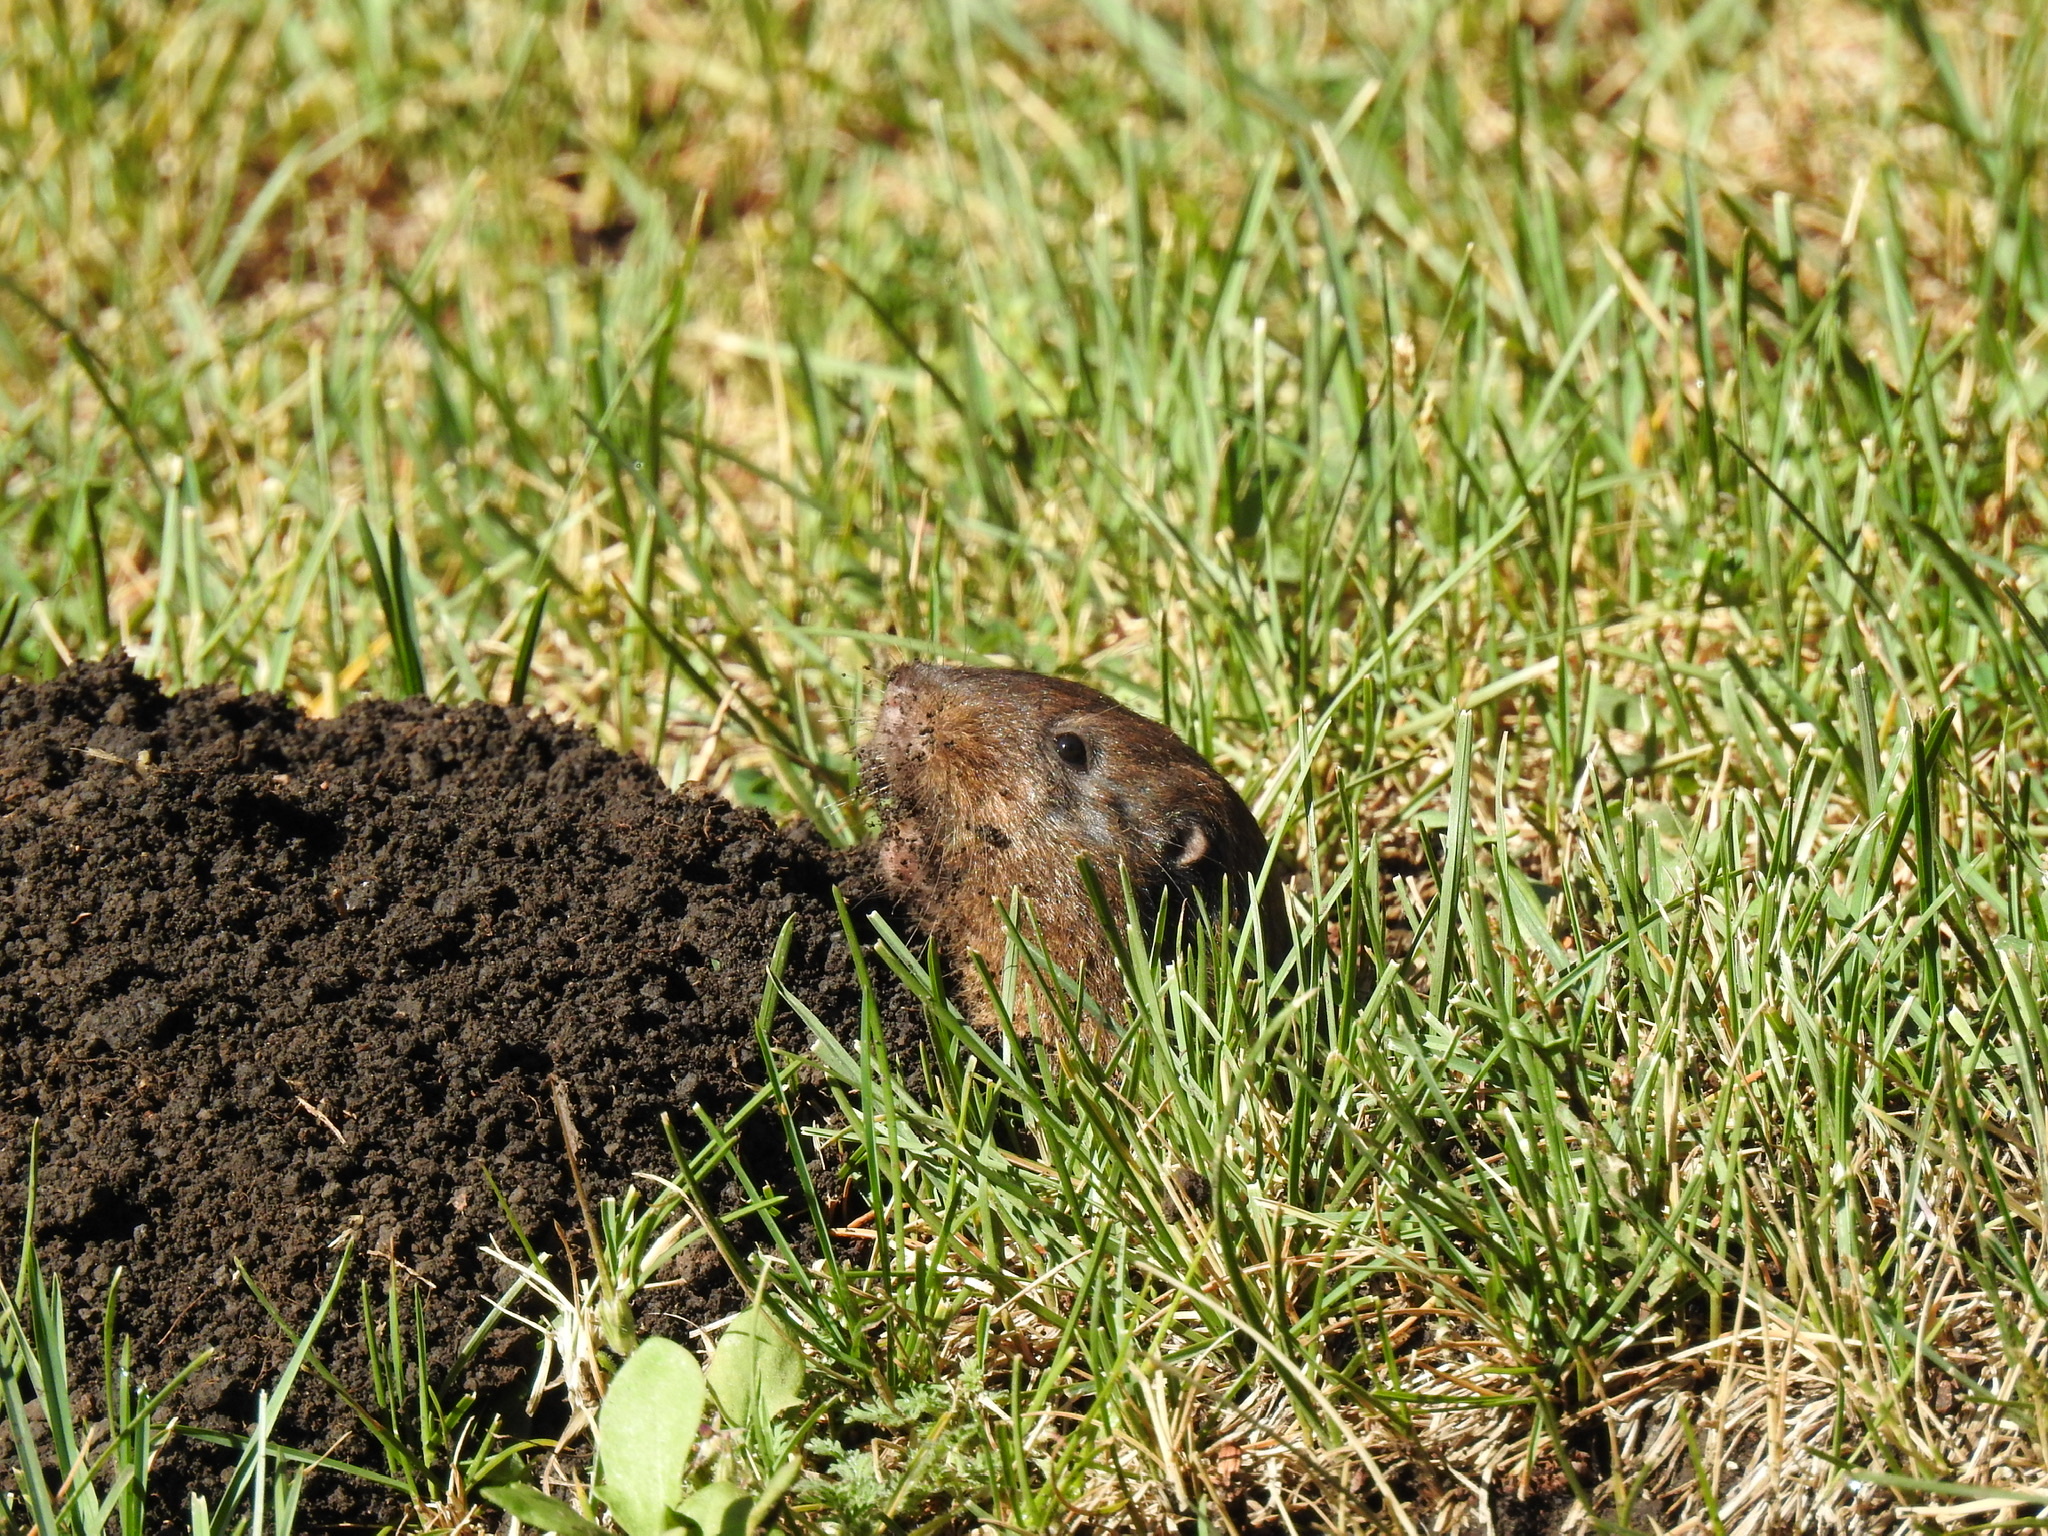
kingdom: Animalia
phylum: Chordata
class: Mammalia
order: Rodentia
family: Geomyidae
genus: Thomomys
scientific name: Thomomys bottae
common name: Botta's pocket gopher
